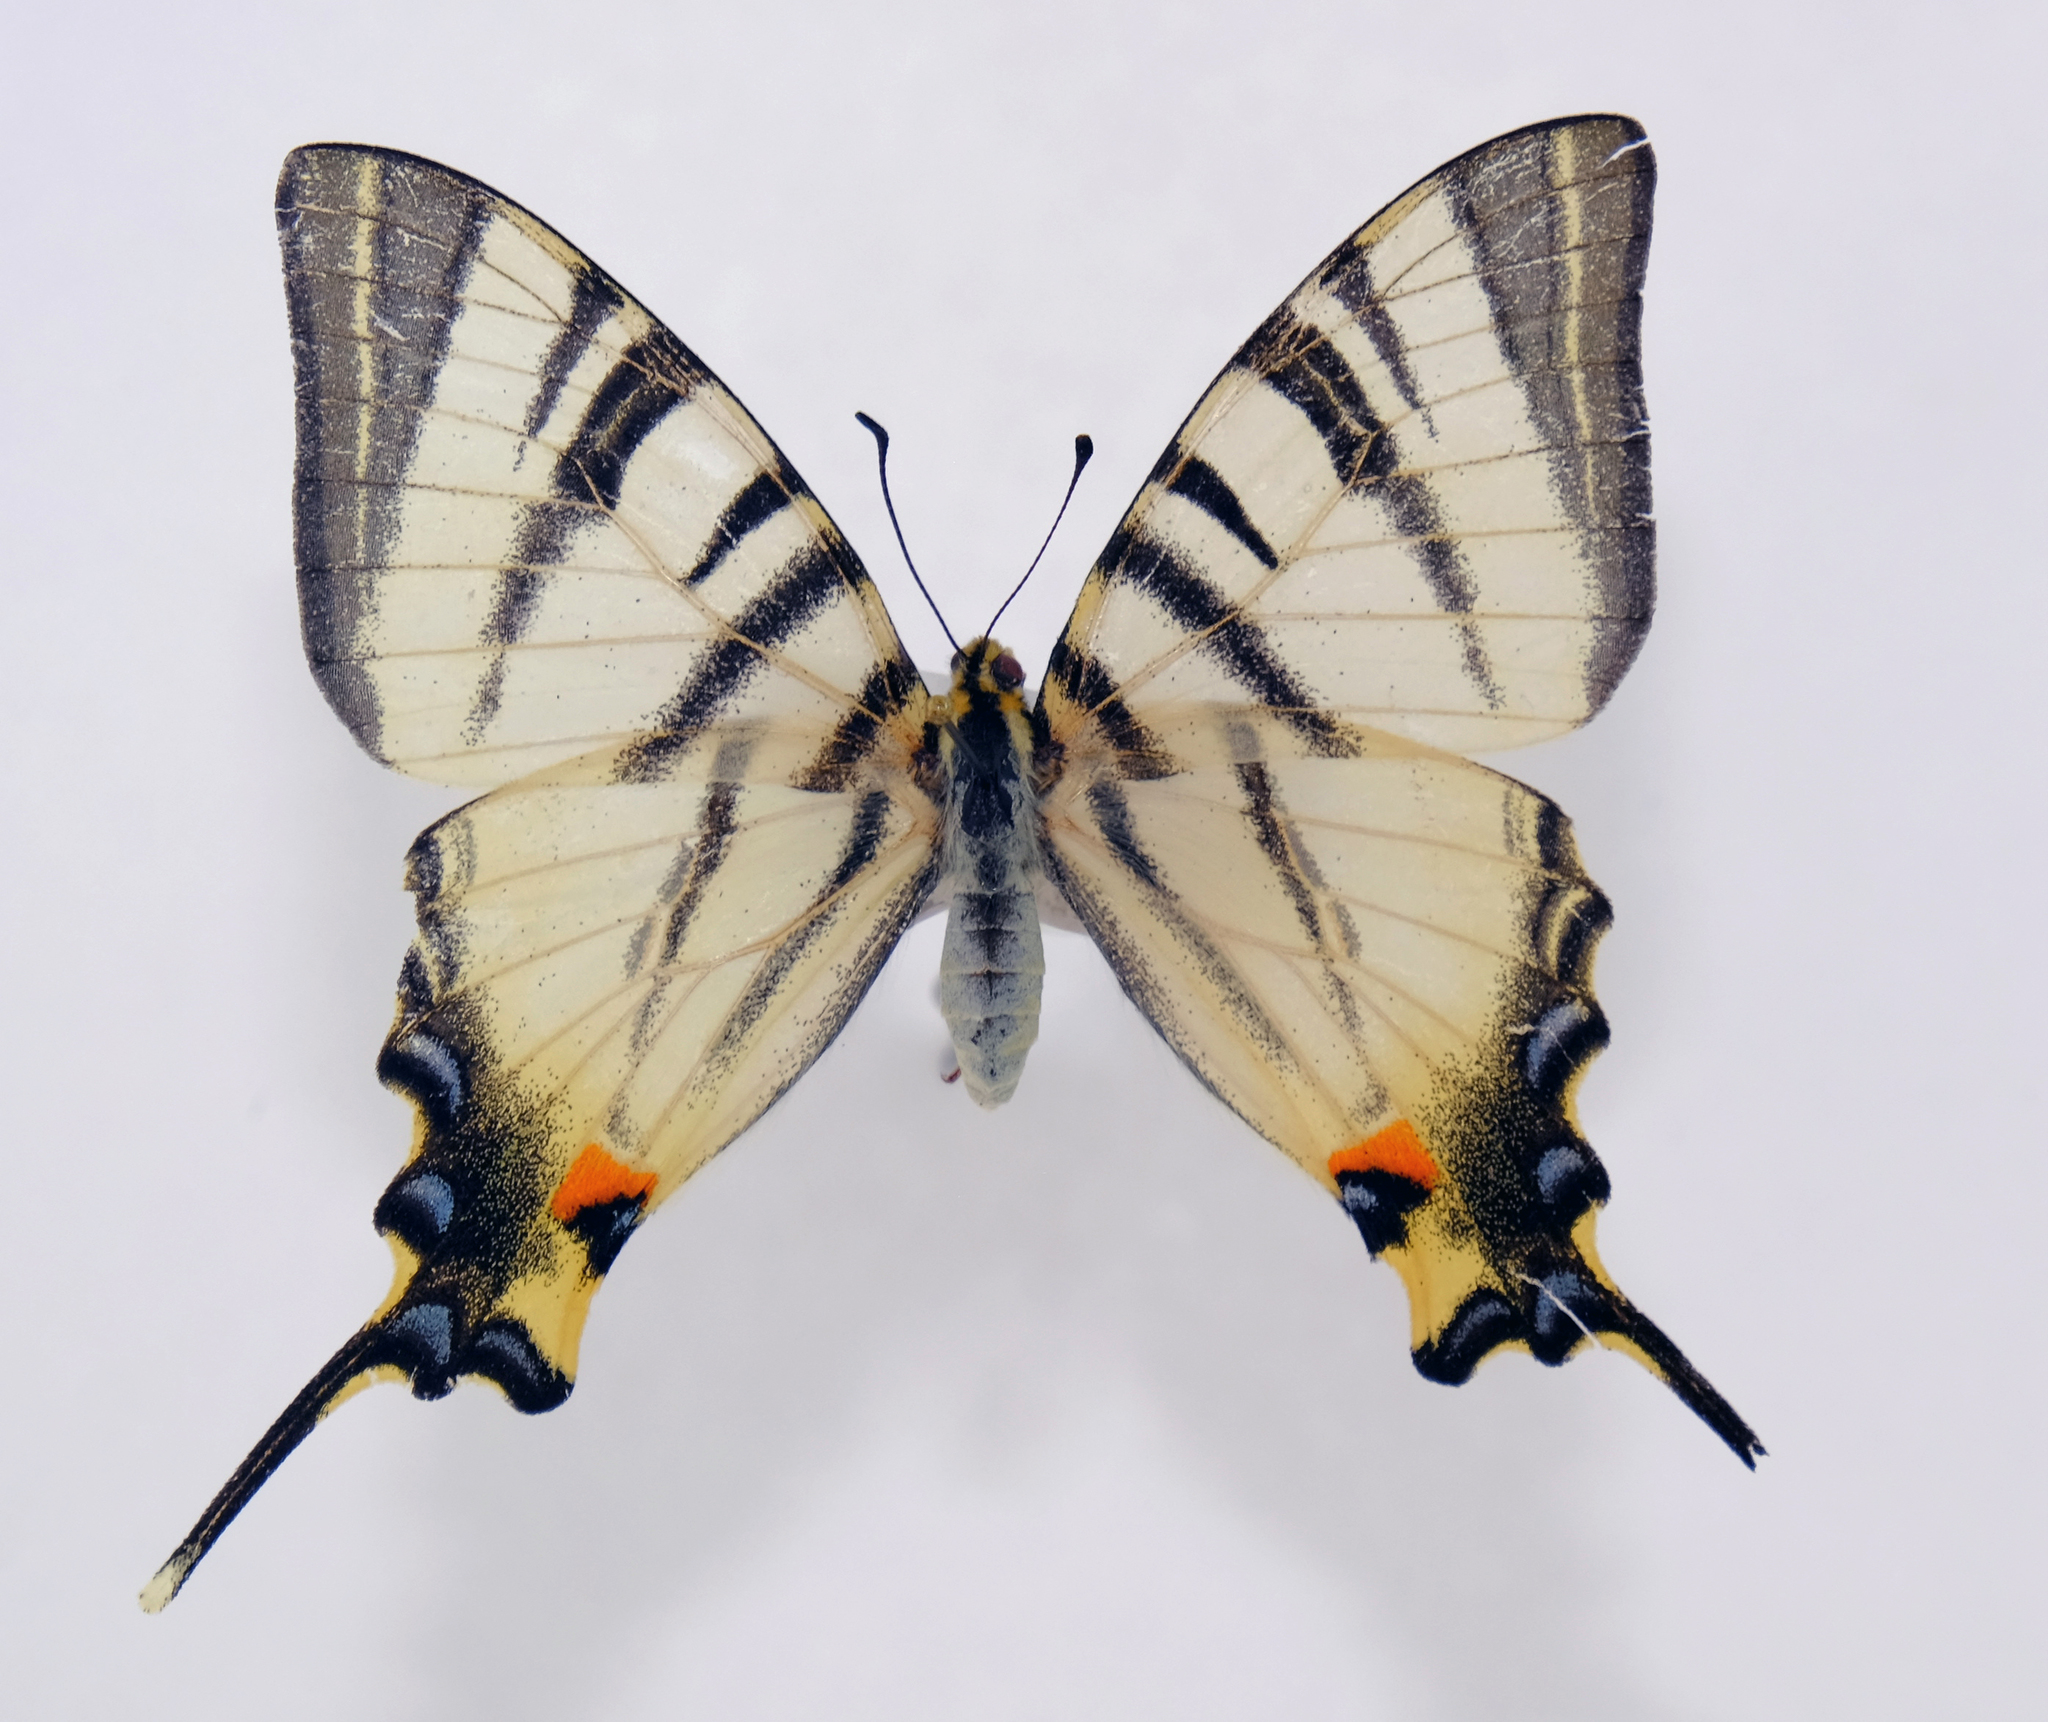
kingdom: Animalia
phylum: Arthropoda
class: Insecta
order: Lepidoptera
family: Papilionidae
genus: Iphiclides
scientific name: Iphiclides podalirius
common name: Scarce swallowtail
